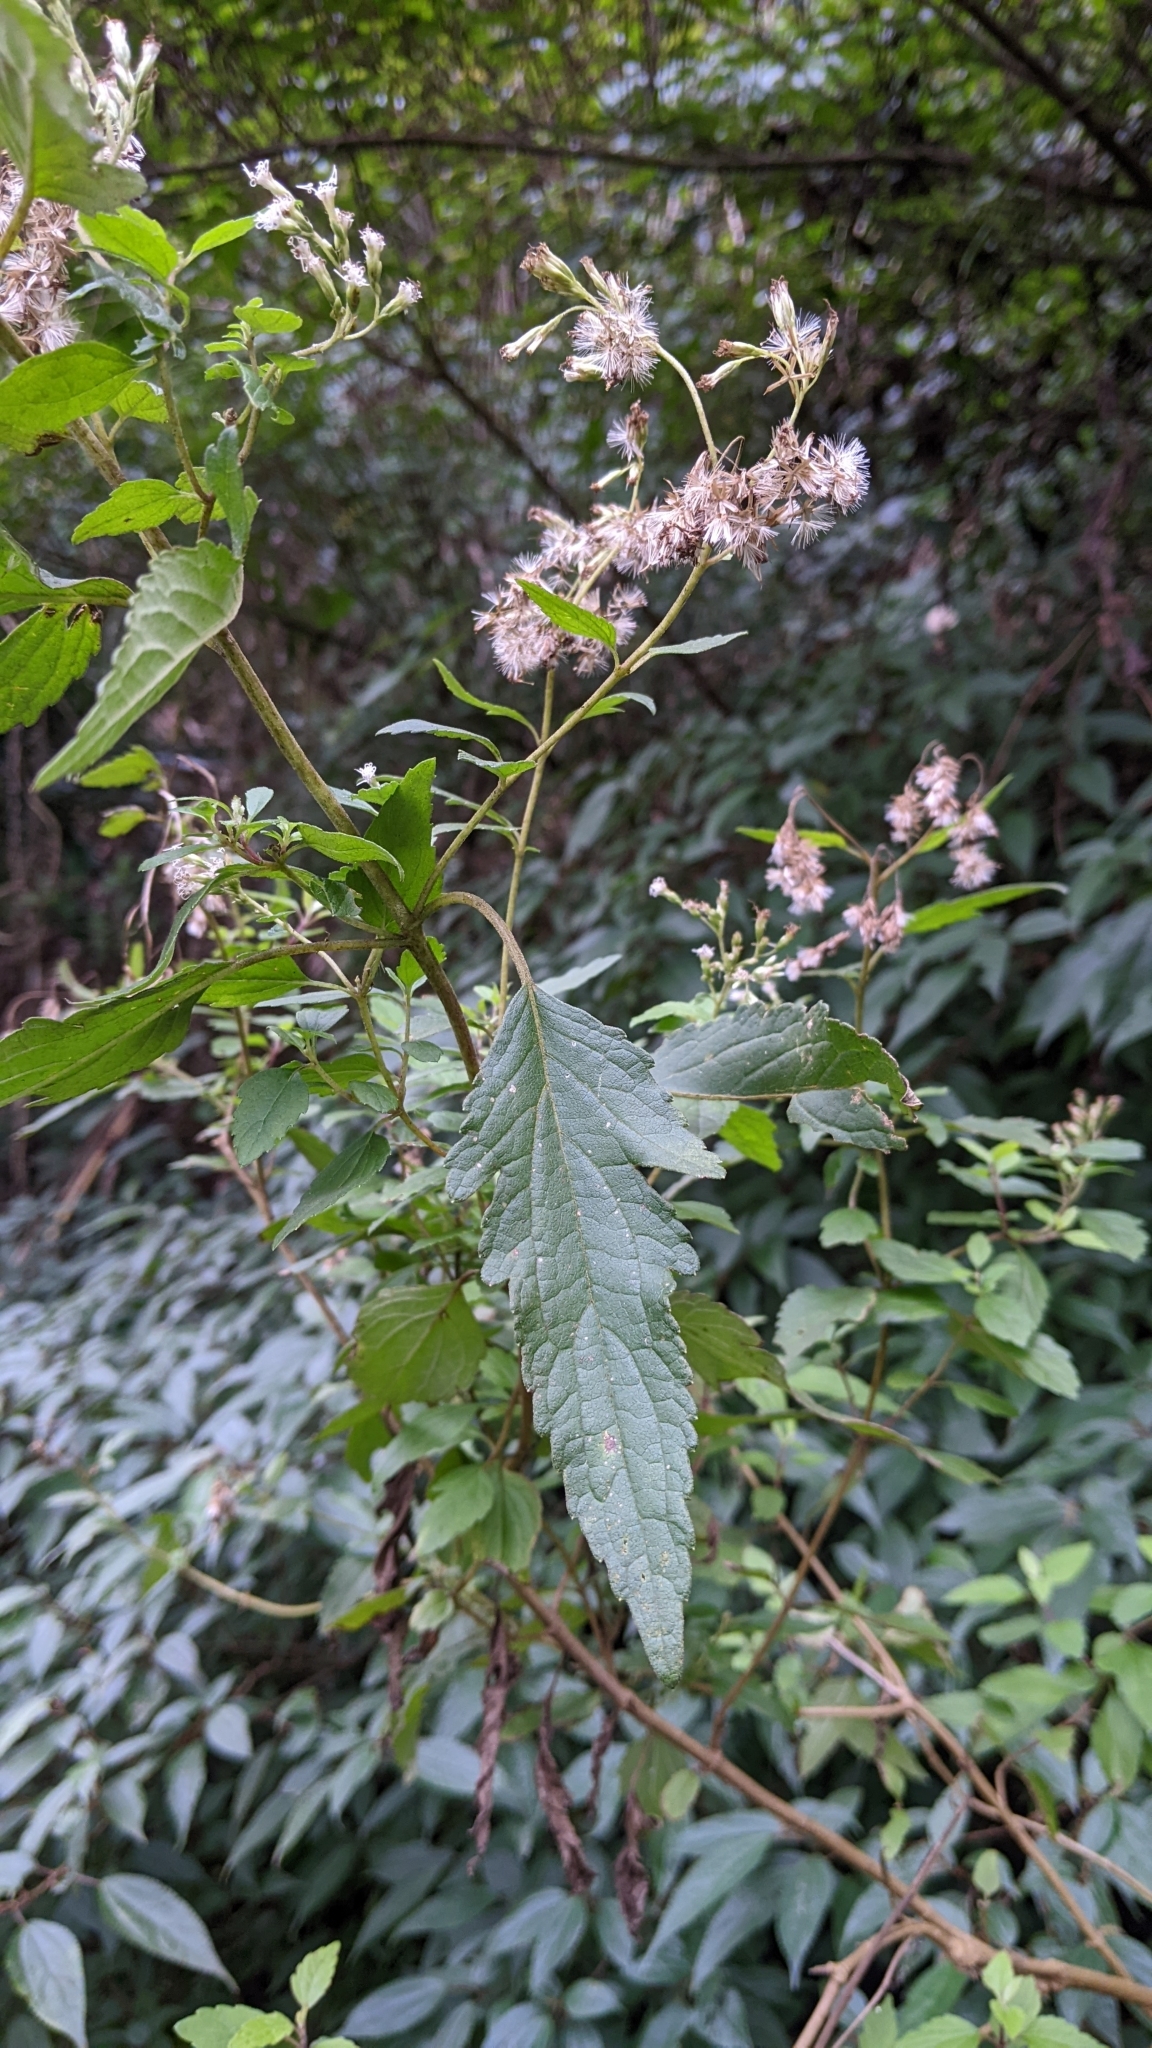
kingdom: Plantae
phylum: Tracheophyta
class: Magnoliopsida
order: Asterales
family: Asteraceae
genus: Eupatorium
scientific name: Eupatorium formosanum
